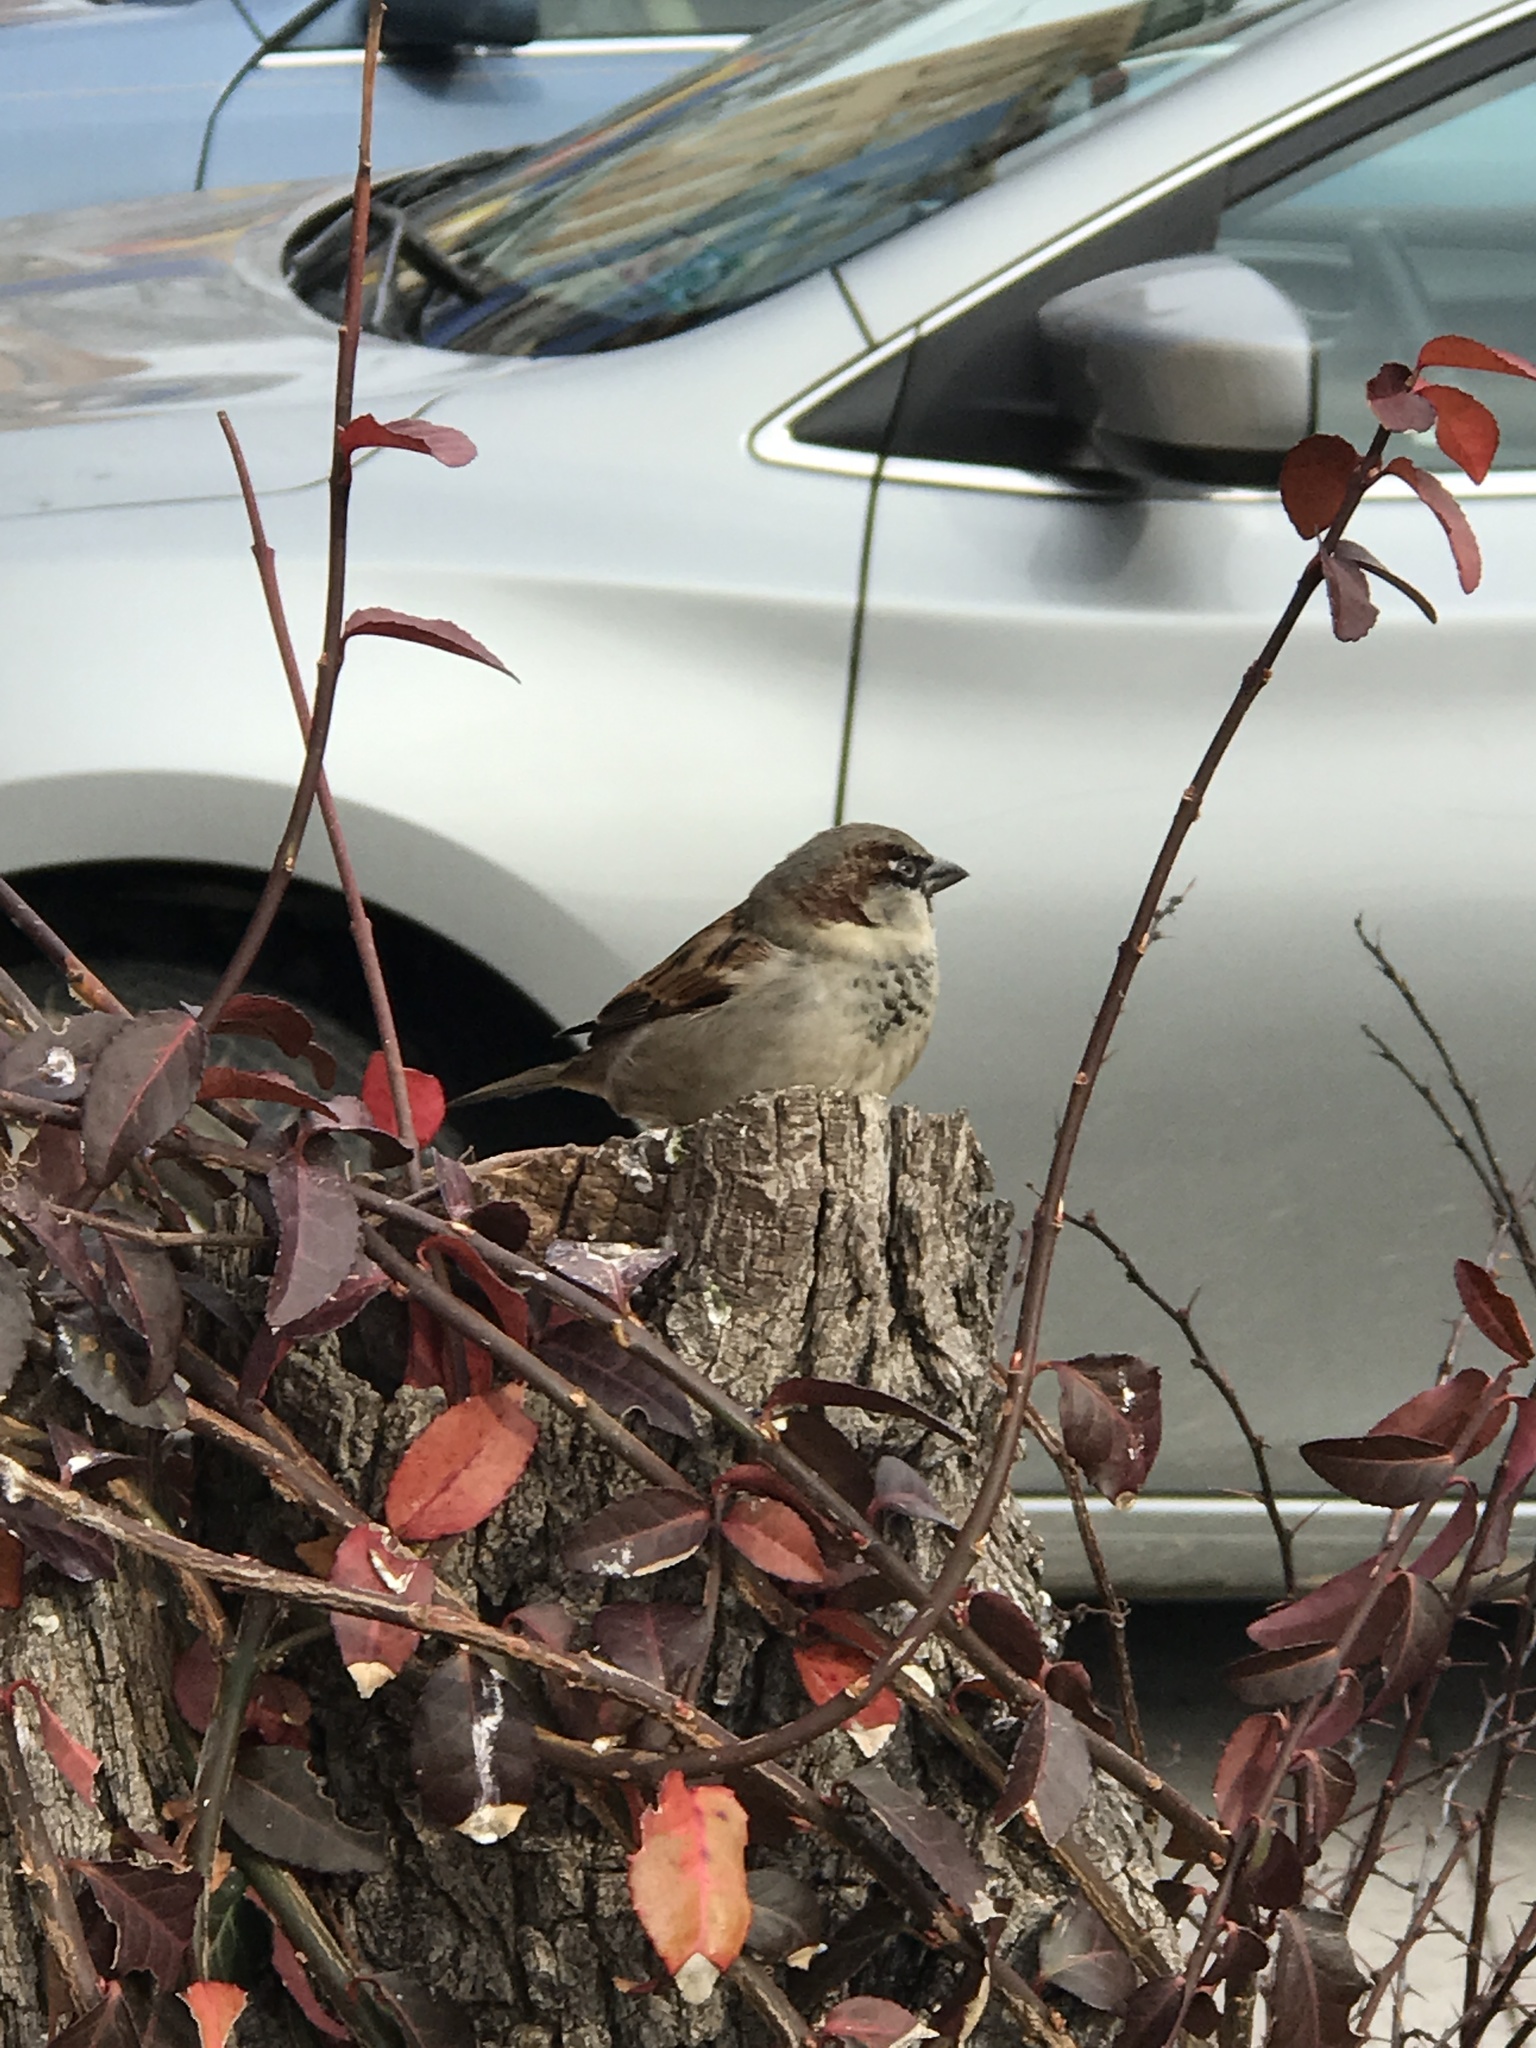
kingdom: Animalia
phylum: Chordata
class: Aves
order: Passeriformes
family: Passeridae
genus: Passer
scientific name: Passer domesticus
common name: House sparrow
